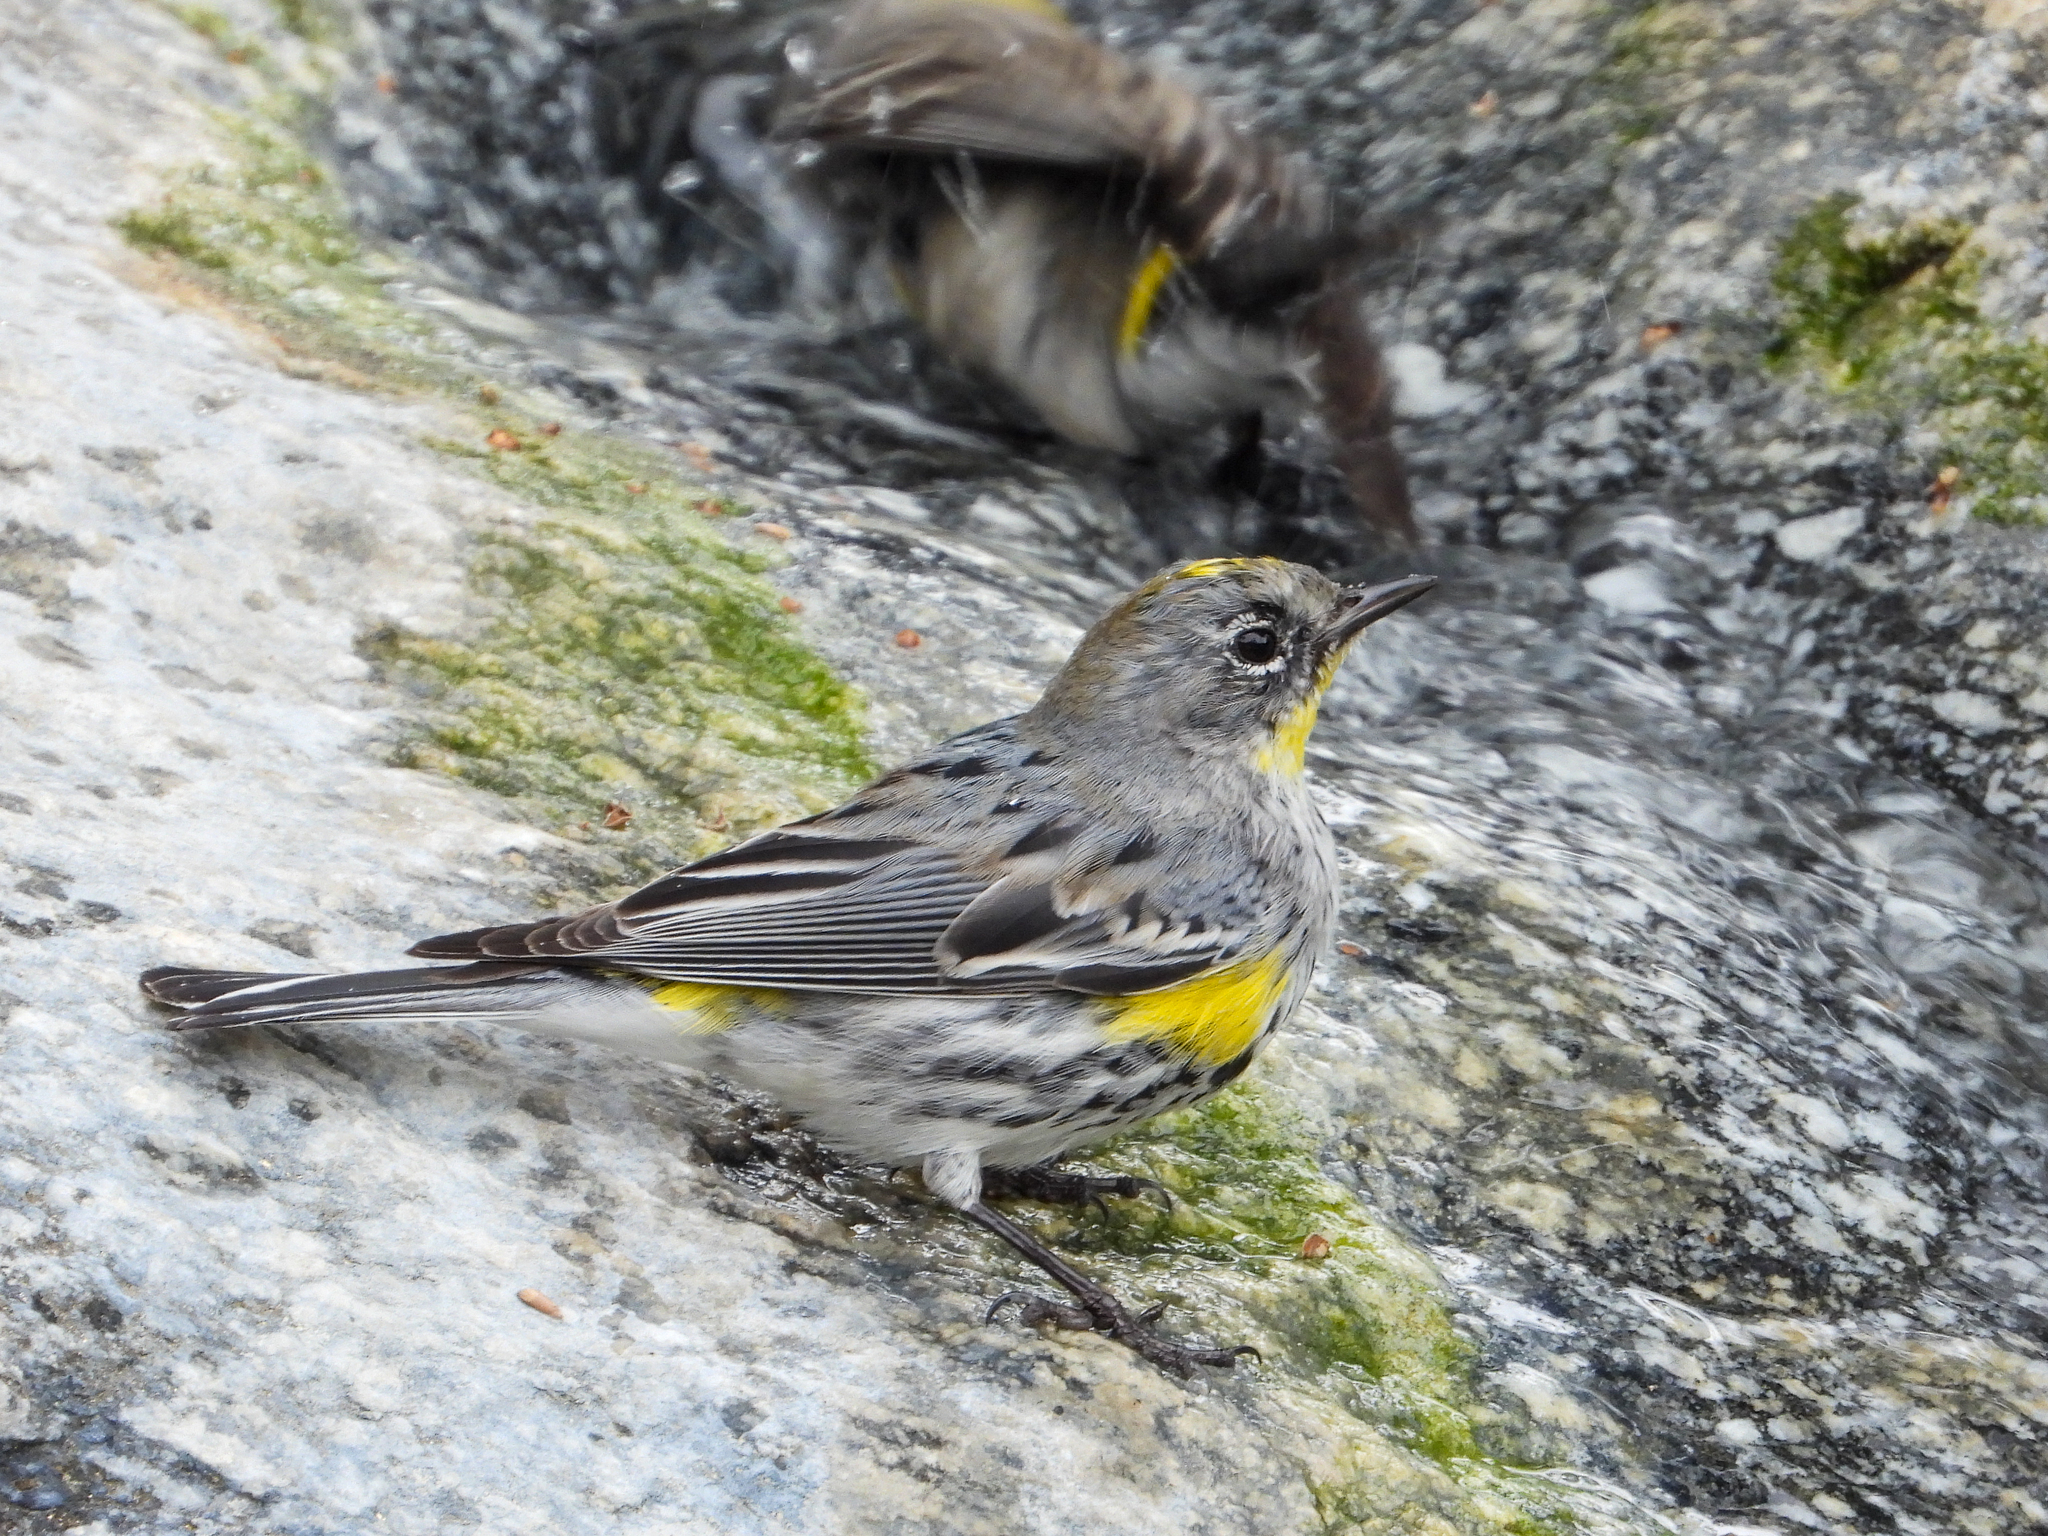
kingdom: Animalia
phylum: Chordata
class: Aves
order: Passeriformes
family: Parulidae
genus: Setophaga
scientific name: Setophaga coronata
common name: Myrtle warbler
